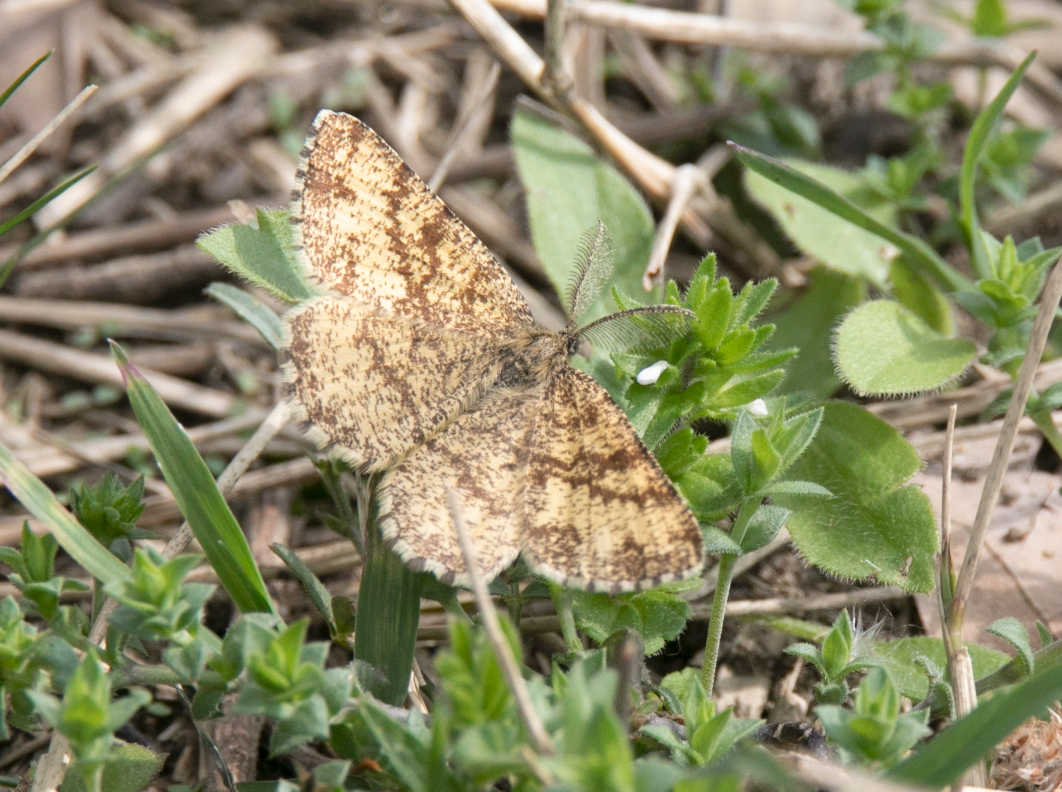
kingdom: Animalia
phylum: Arthropoda
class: Insecta
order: Lepidoptera
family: Geometridae
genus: Ematurga
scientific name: Ematurga atomaria
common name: Common heath
